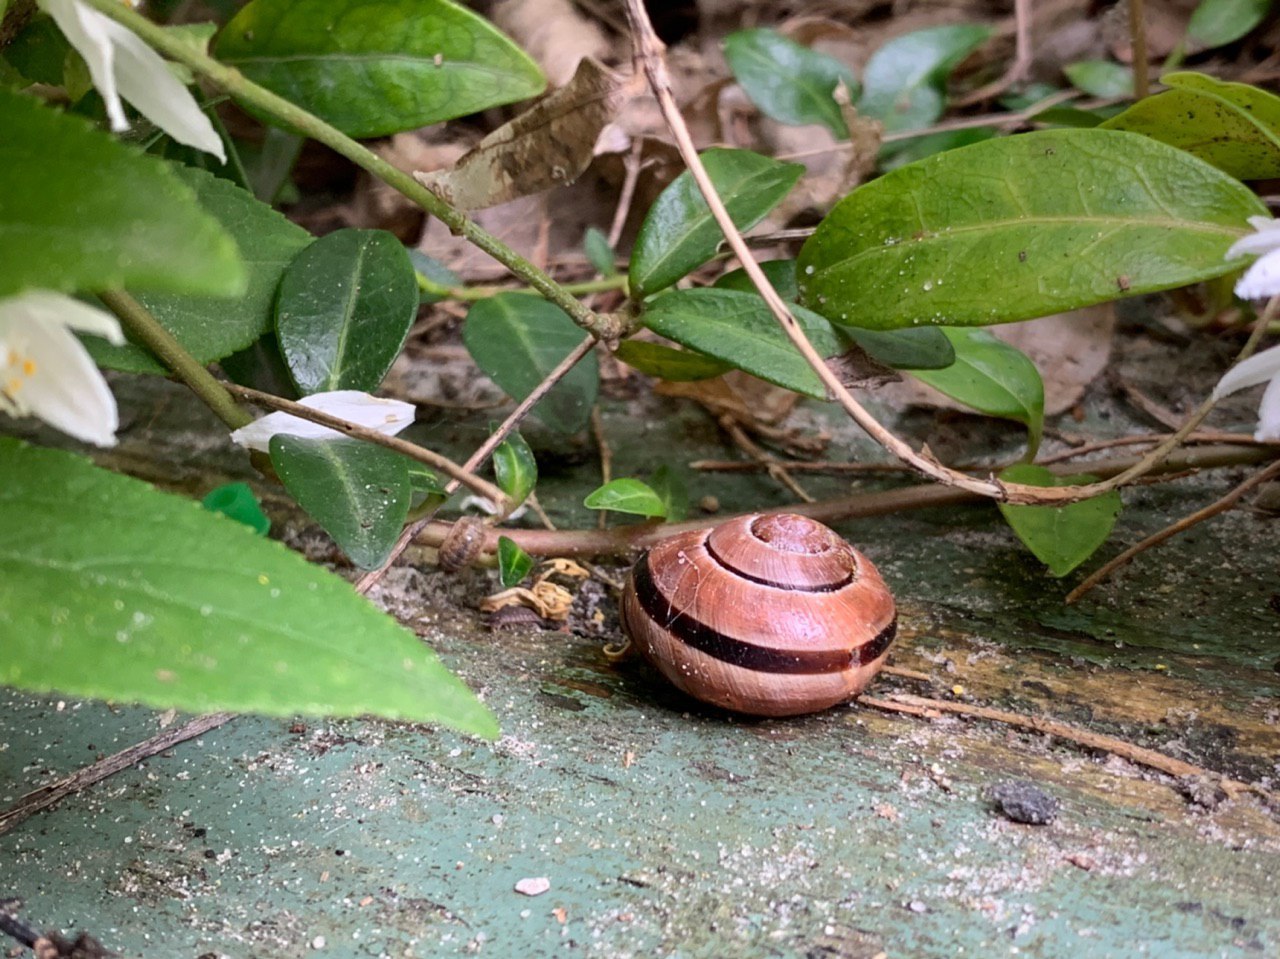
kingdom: Animalia
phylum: Mollusca
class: Gastropoda
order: Stylommatophora
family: Helicidae
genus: Cepaea
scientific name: Cepaea nemoralis
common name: Grovesnail
